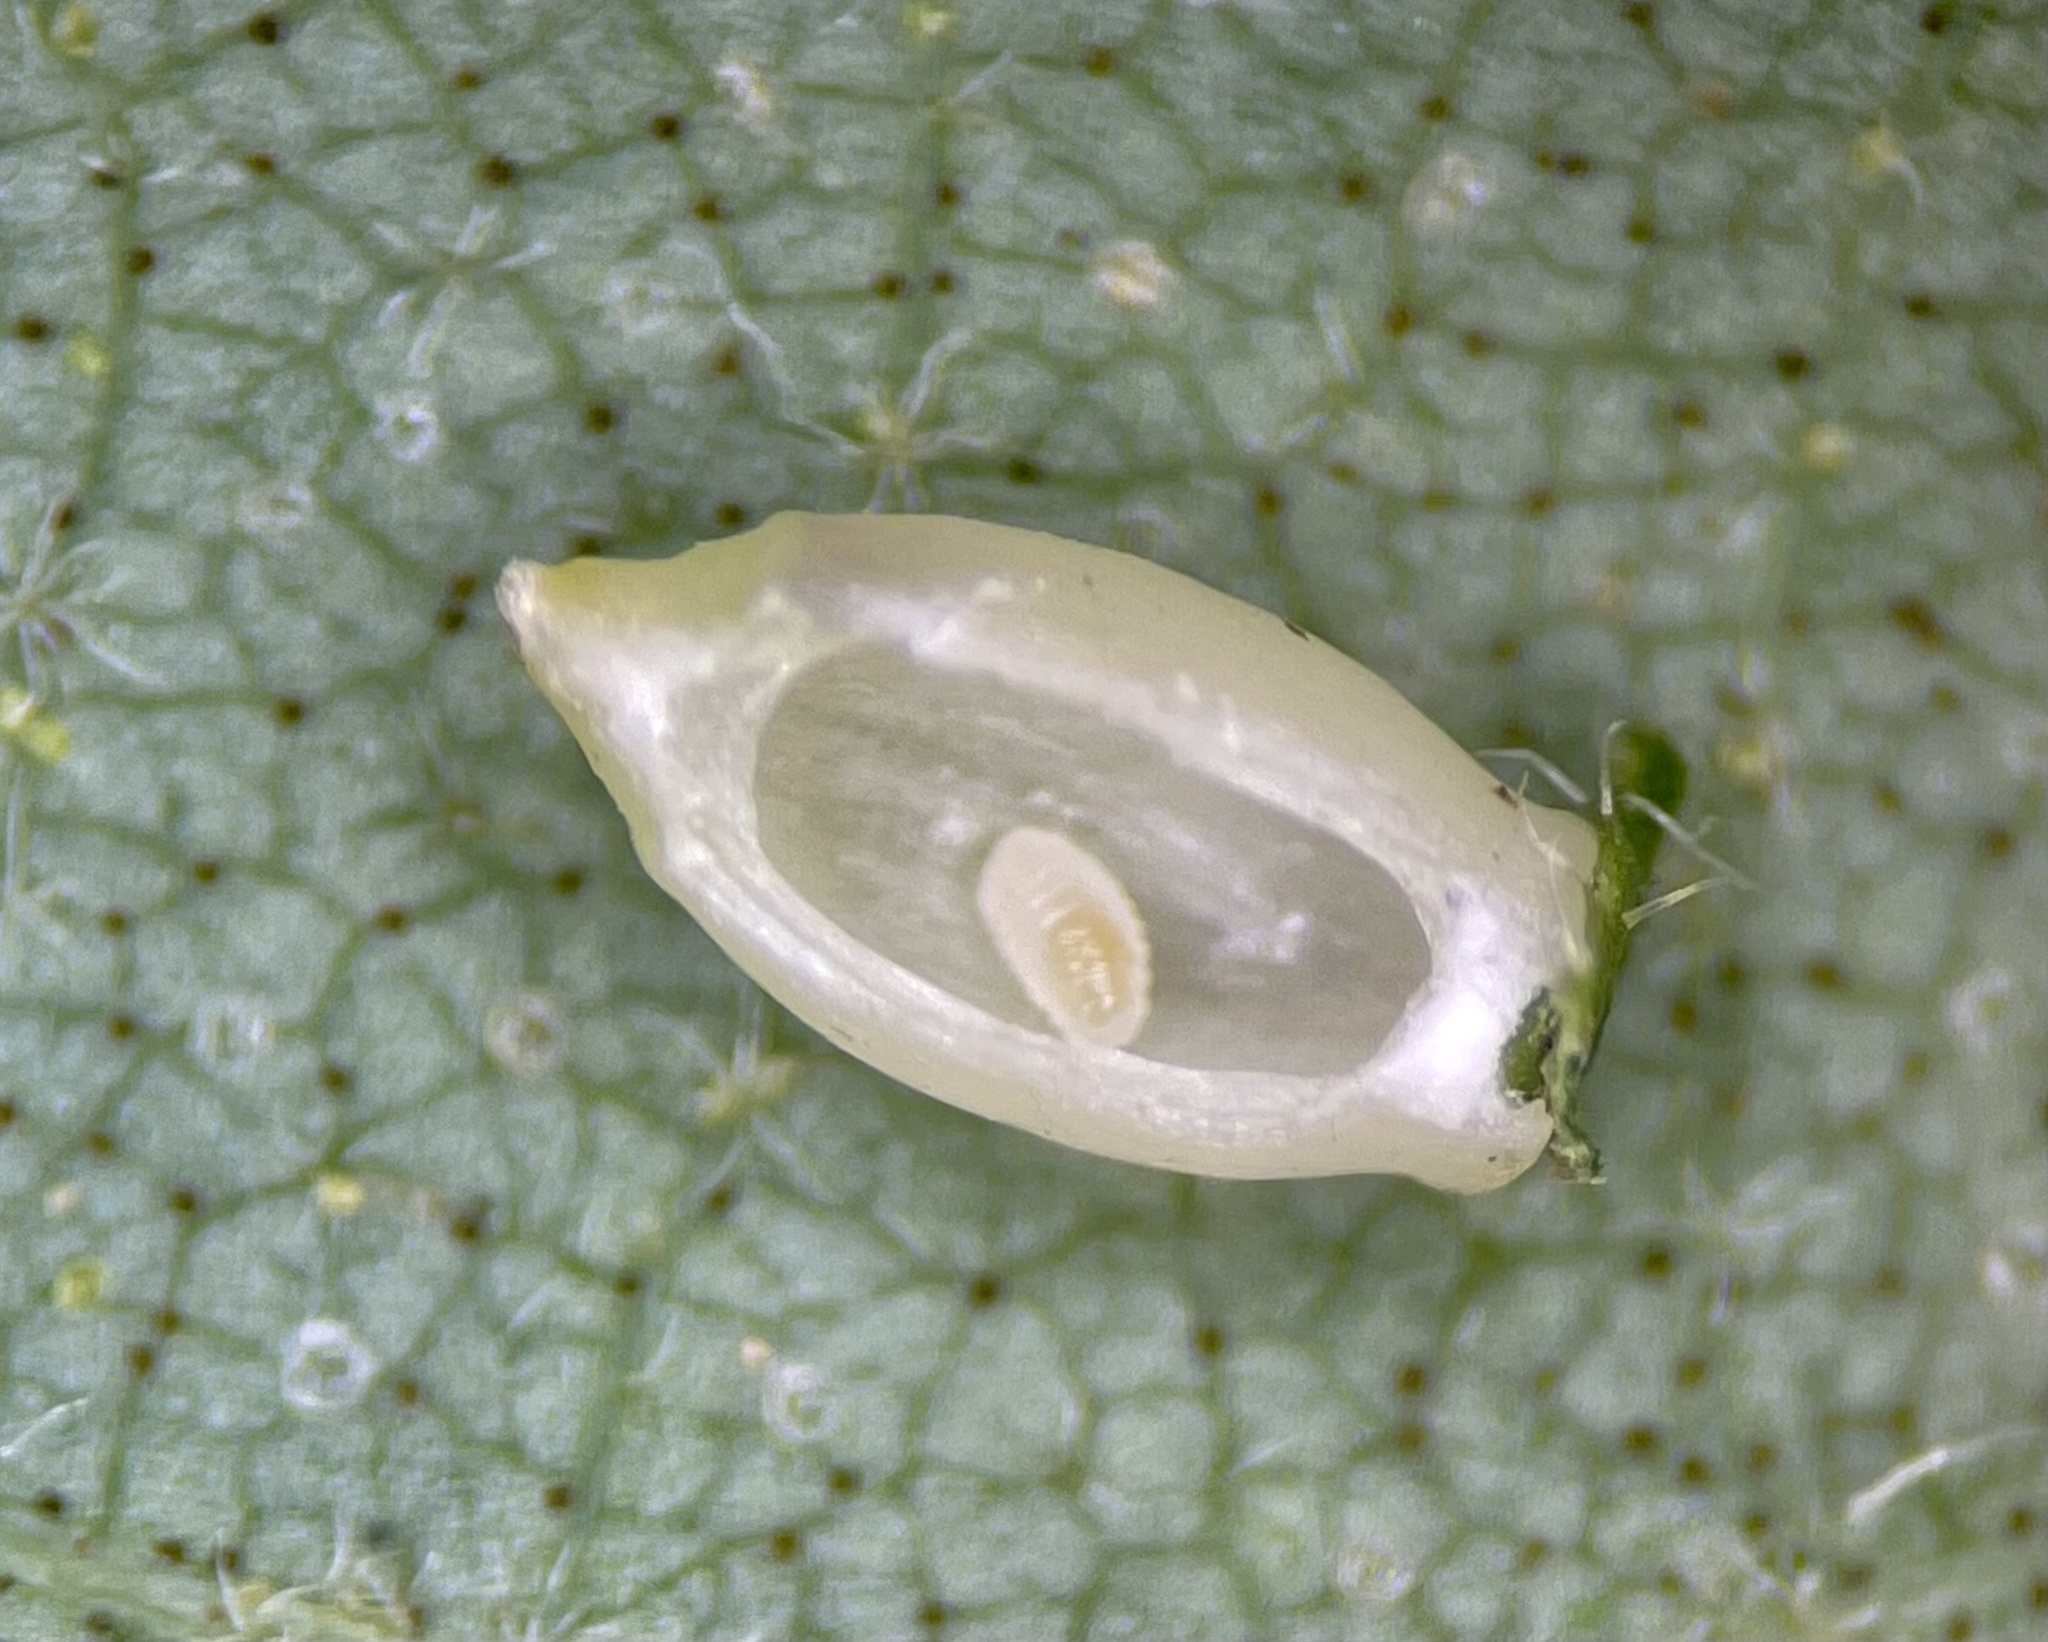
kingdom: Animalia
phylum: Arthropoda
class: Insecta
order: Diptera
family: Cecidomyiidae
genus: Caryomyia
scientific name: Caryomyia urnula
